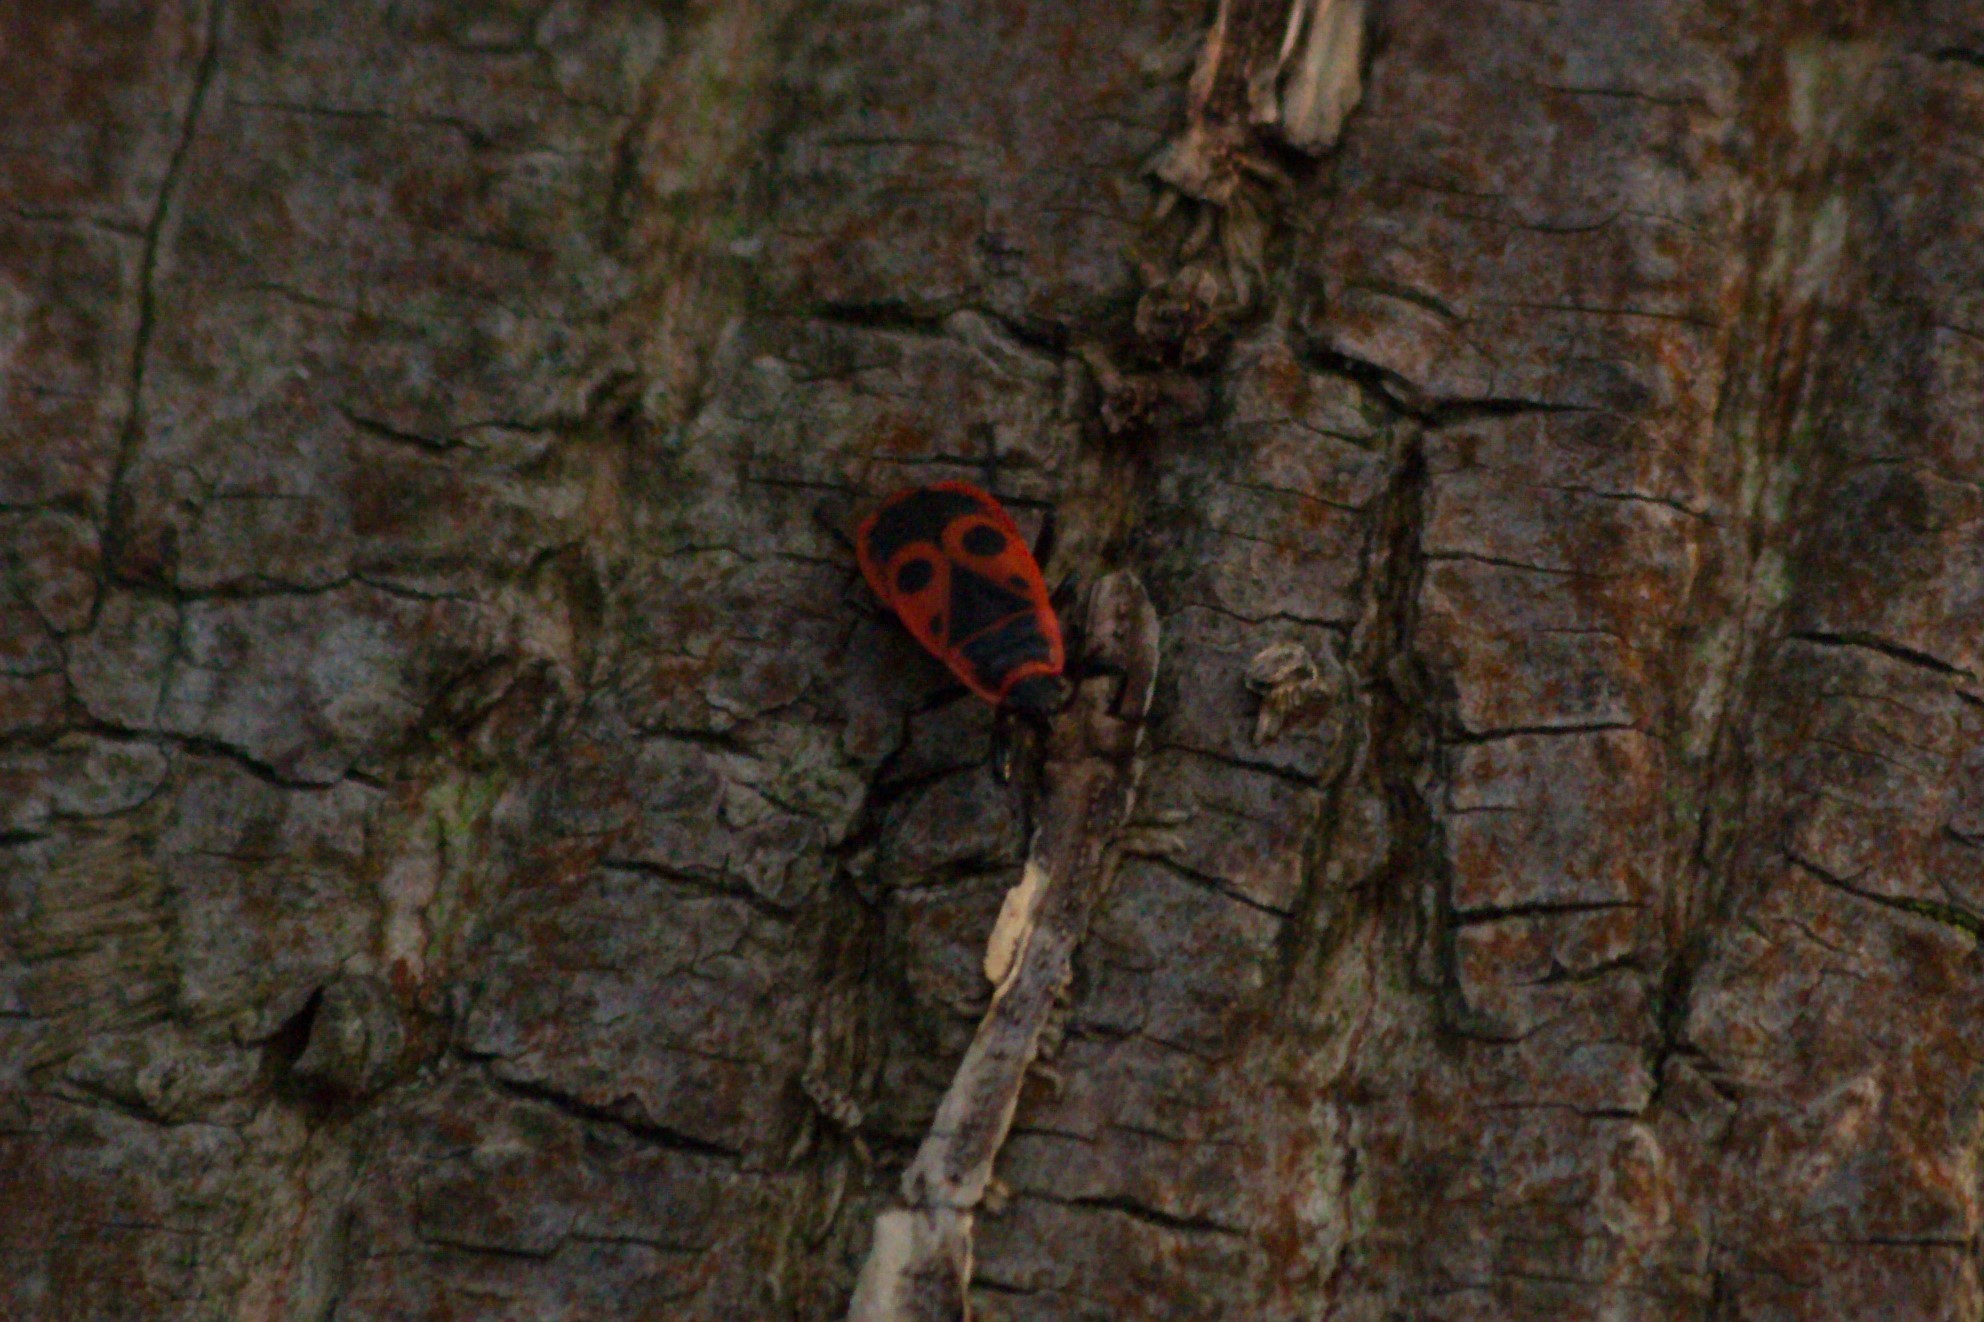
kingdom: Animalia
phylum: Arthropoda
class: Insecta
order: Hemiptera
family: Pyrrhocoridae
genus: Pyrrhocoris
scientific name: Pyrrhocoris apterus
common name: Firebug
